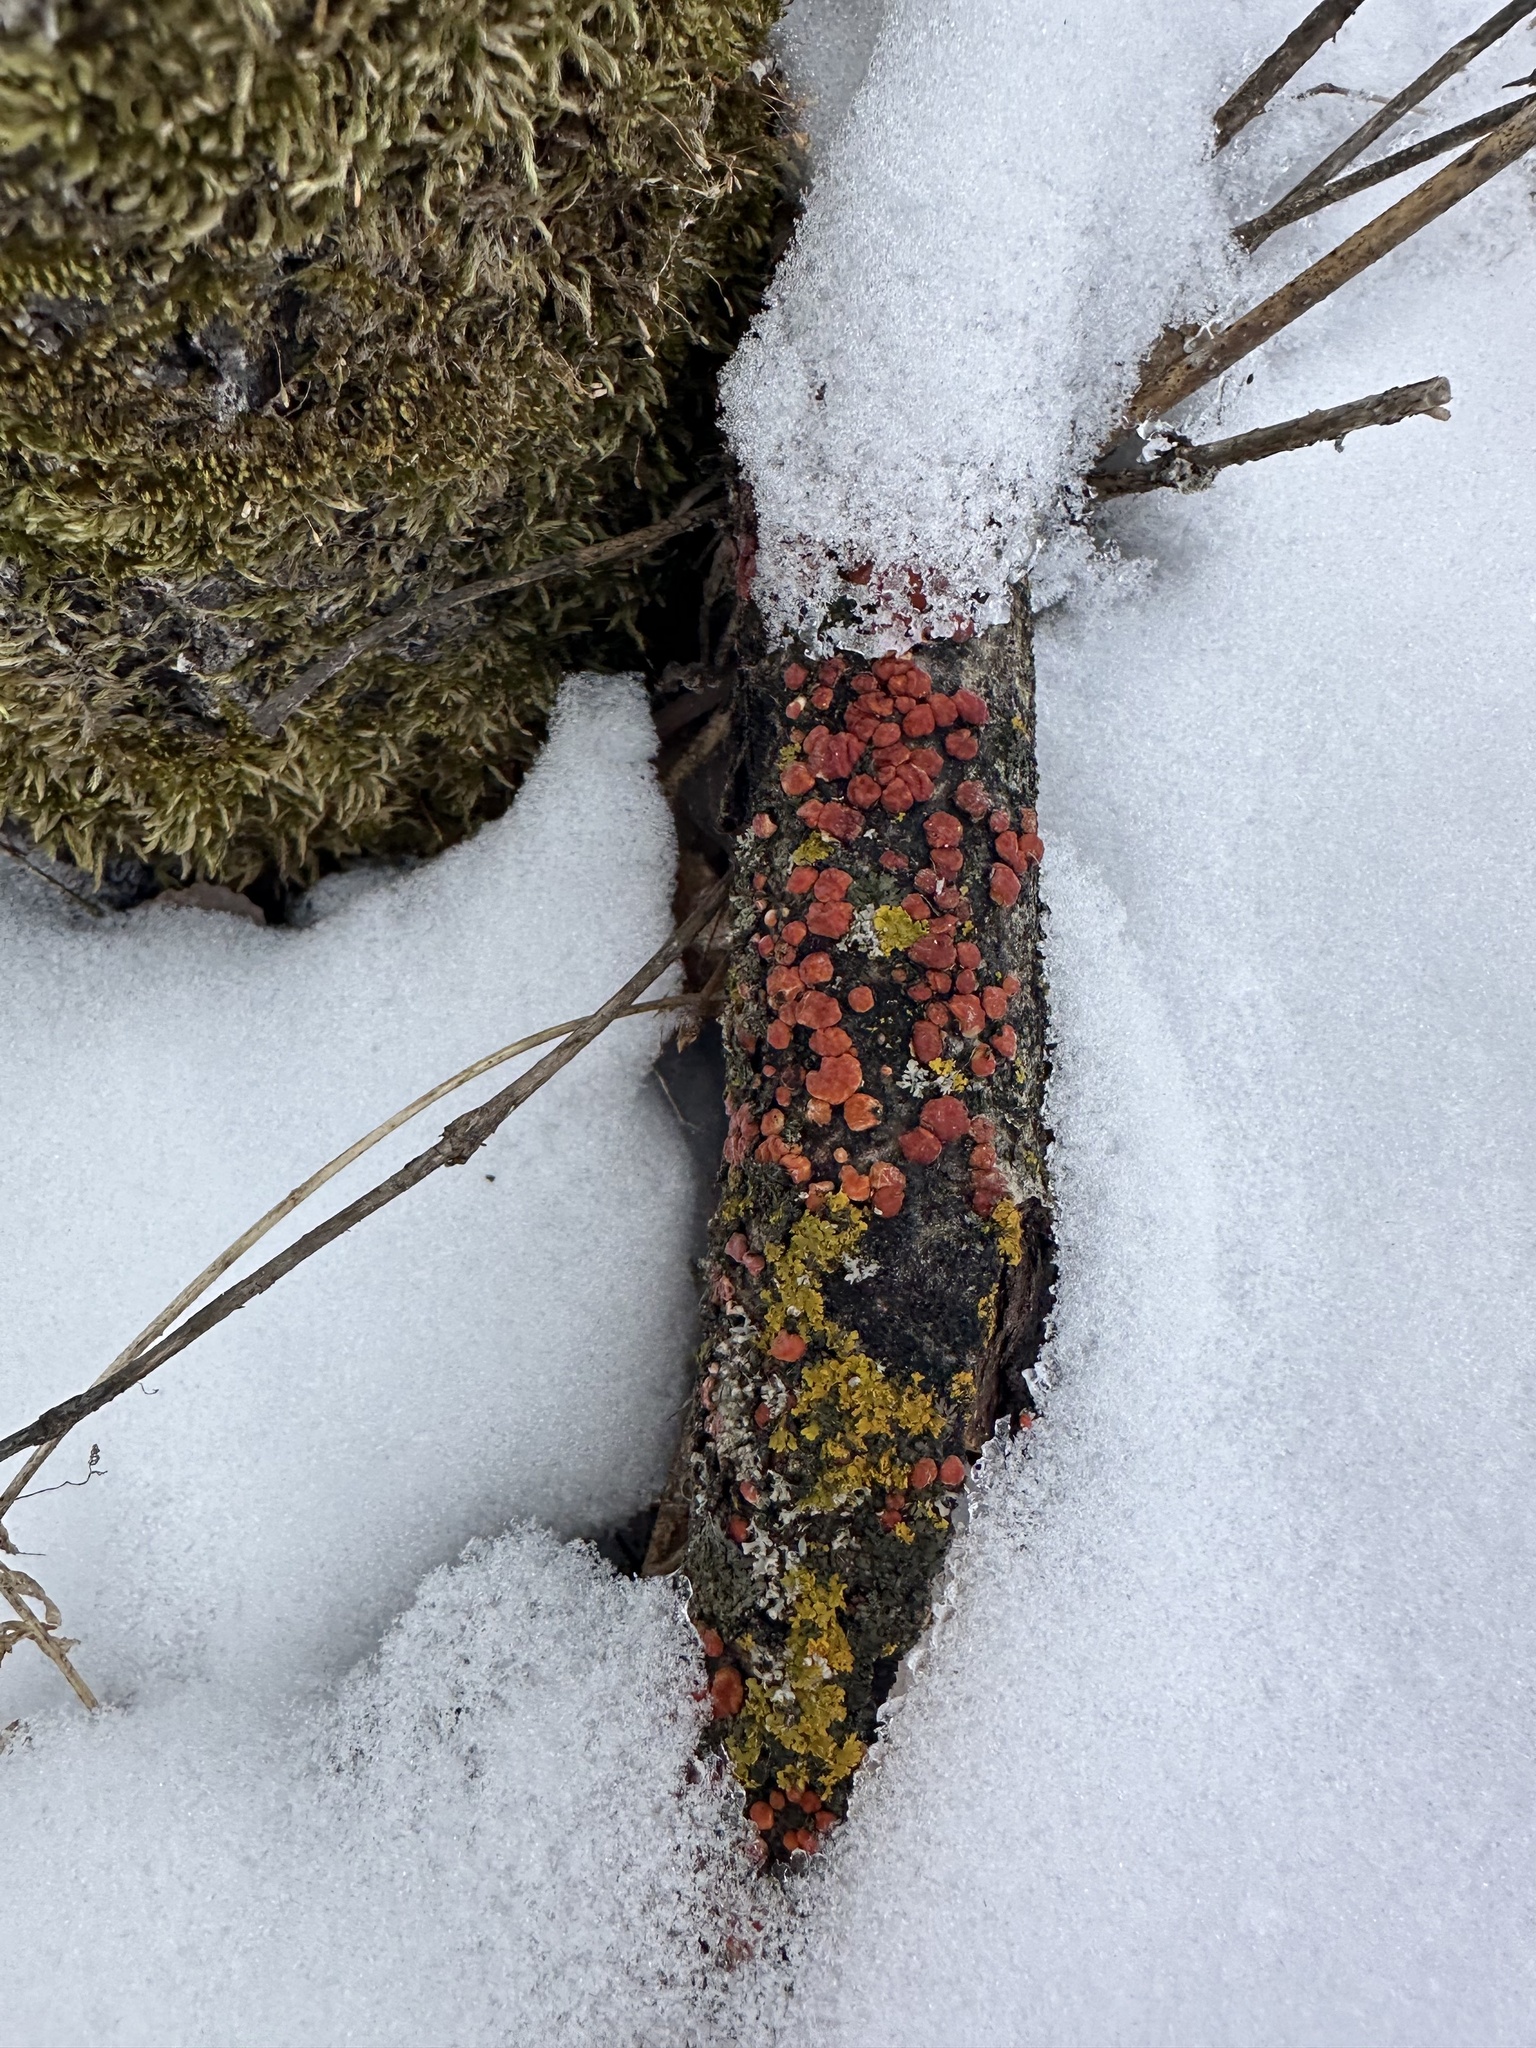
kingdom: Fungi
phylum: Basidiomycota
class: Agaricomycetes
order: Russulales
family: Peniophoraceae
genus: Peniophora
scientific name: Peniophora rufa
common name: Red tree brain fungus
